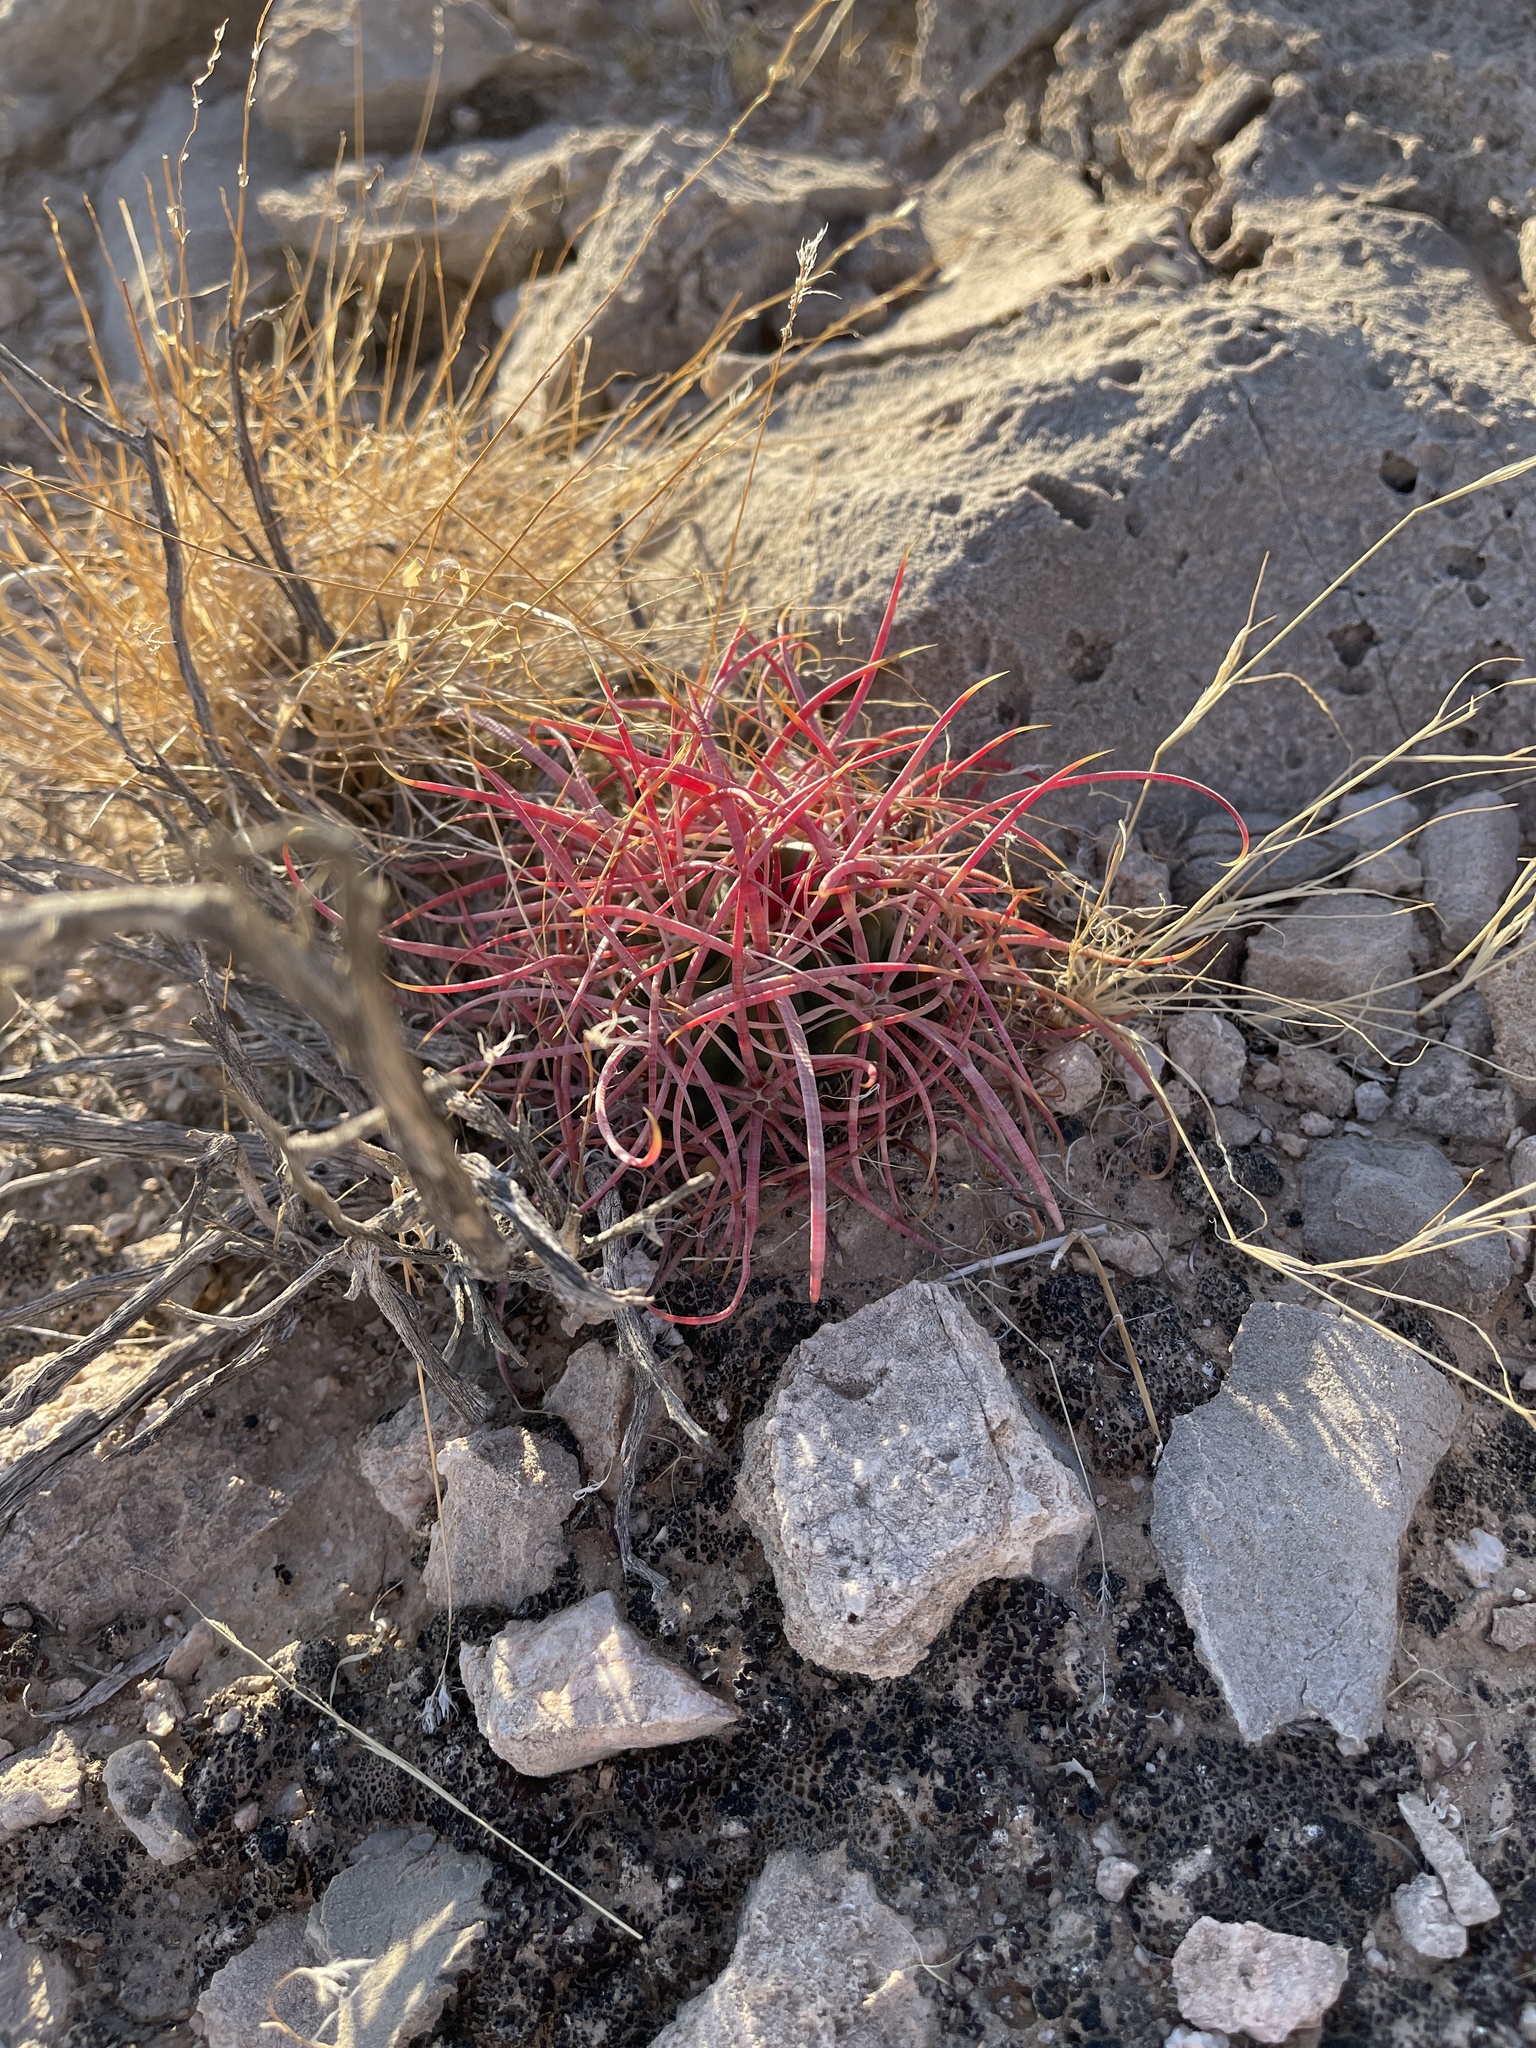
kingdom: Plantae
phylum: Tracheophyta
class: Magnoliopsida
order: Caryophyllales
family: Cactaceae
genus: Ferocactus
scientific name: Ferocactus cylindraceus
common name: California barrel cactus
